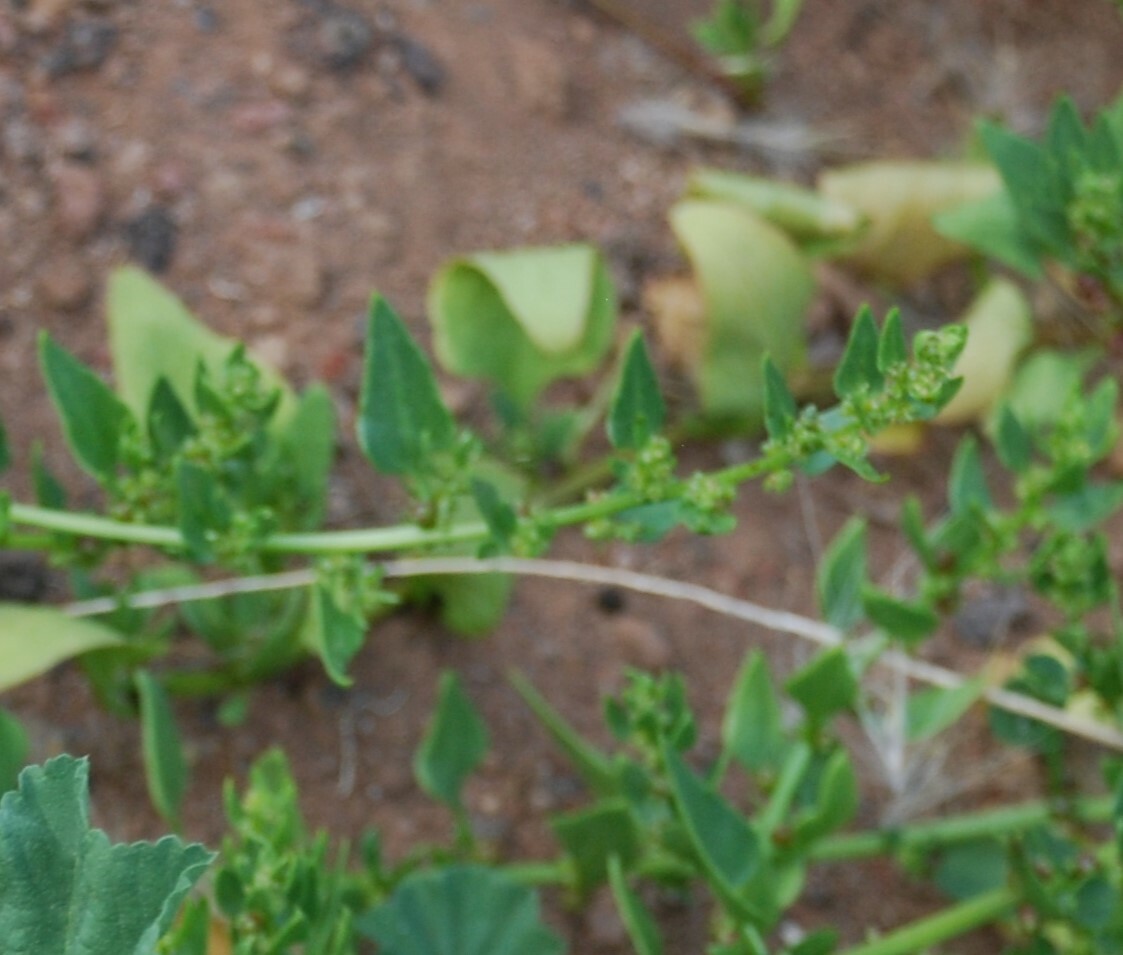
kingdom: Plantae
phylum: Tracheophyta
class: Magnoliopsida
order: Caryophyllales
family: Amaranthaceae
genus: Patellifolia
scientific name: Patellifolia procumbens
